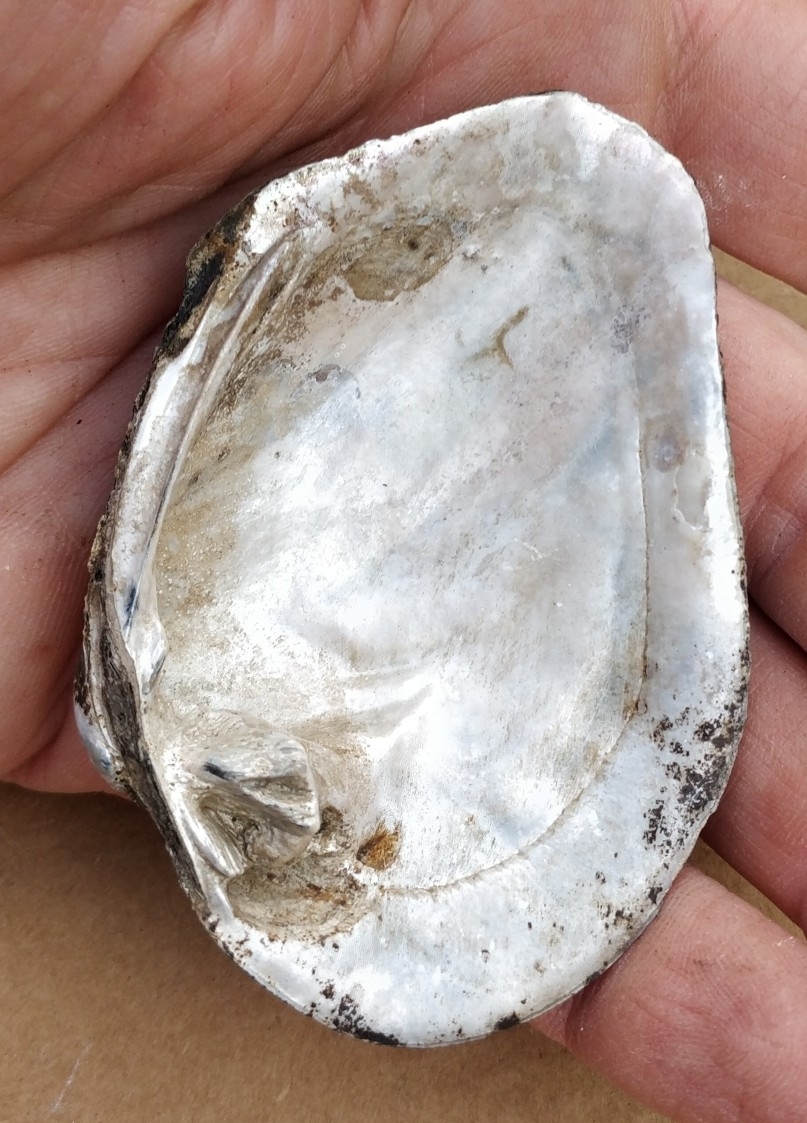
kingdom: Animalia
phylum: Mollusca
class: Bivalvia
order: Unionida
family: Unionidae
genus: Quadrula
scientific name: Quadrula quadrula
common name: Mapleleaf
